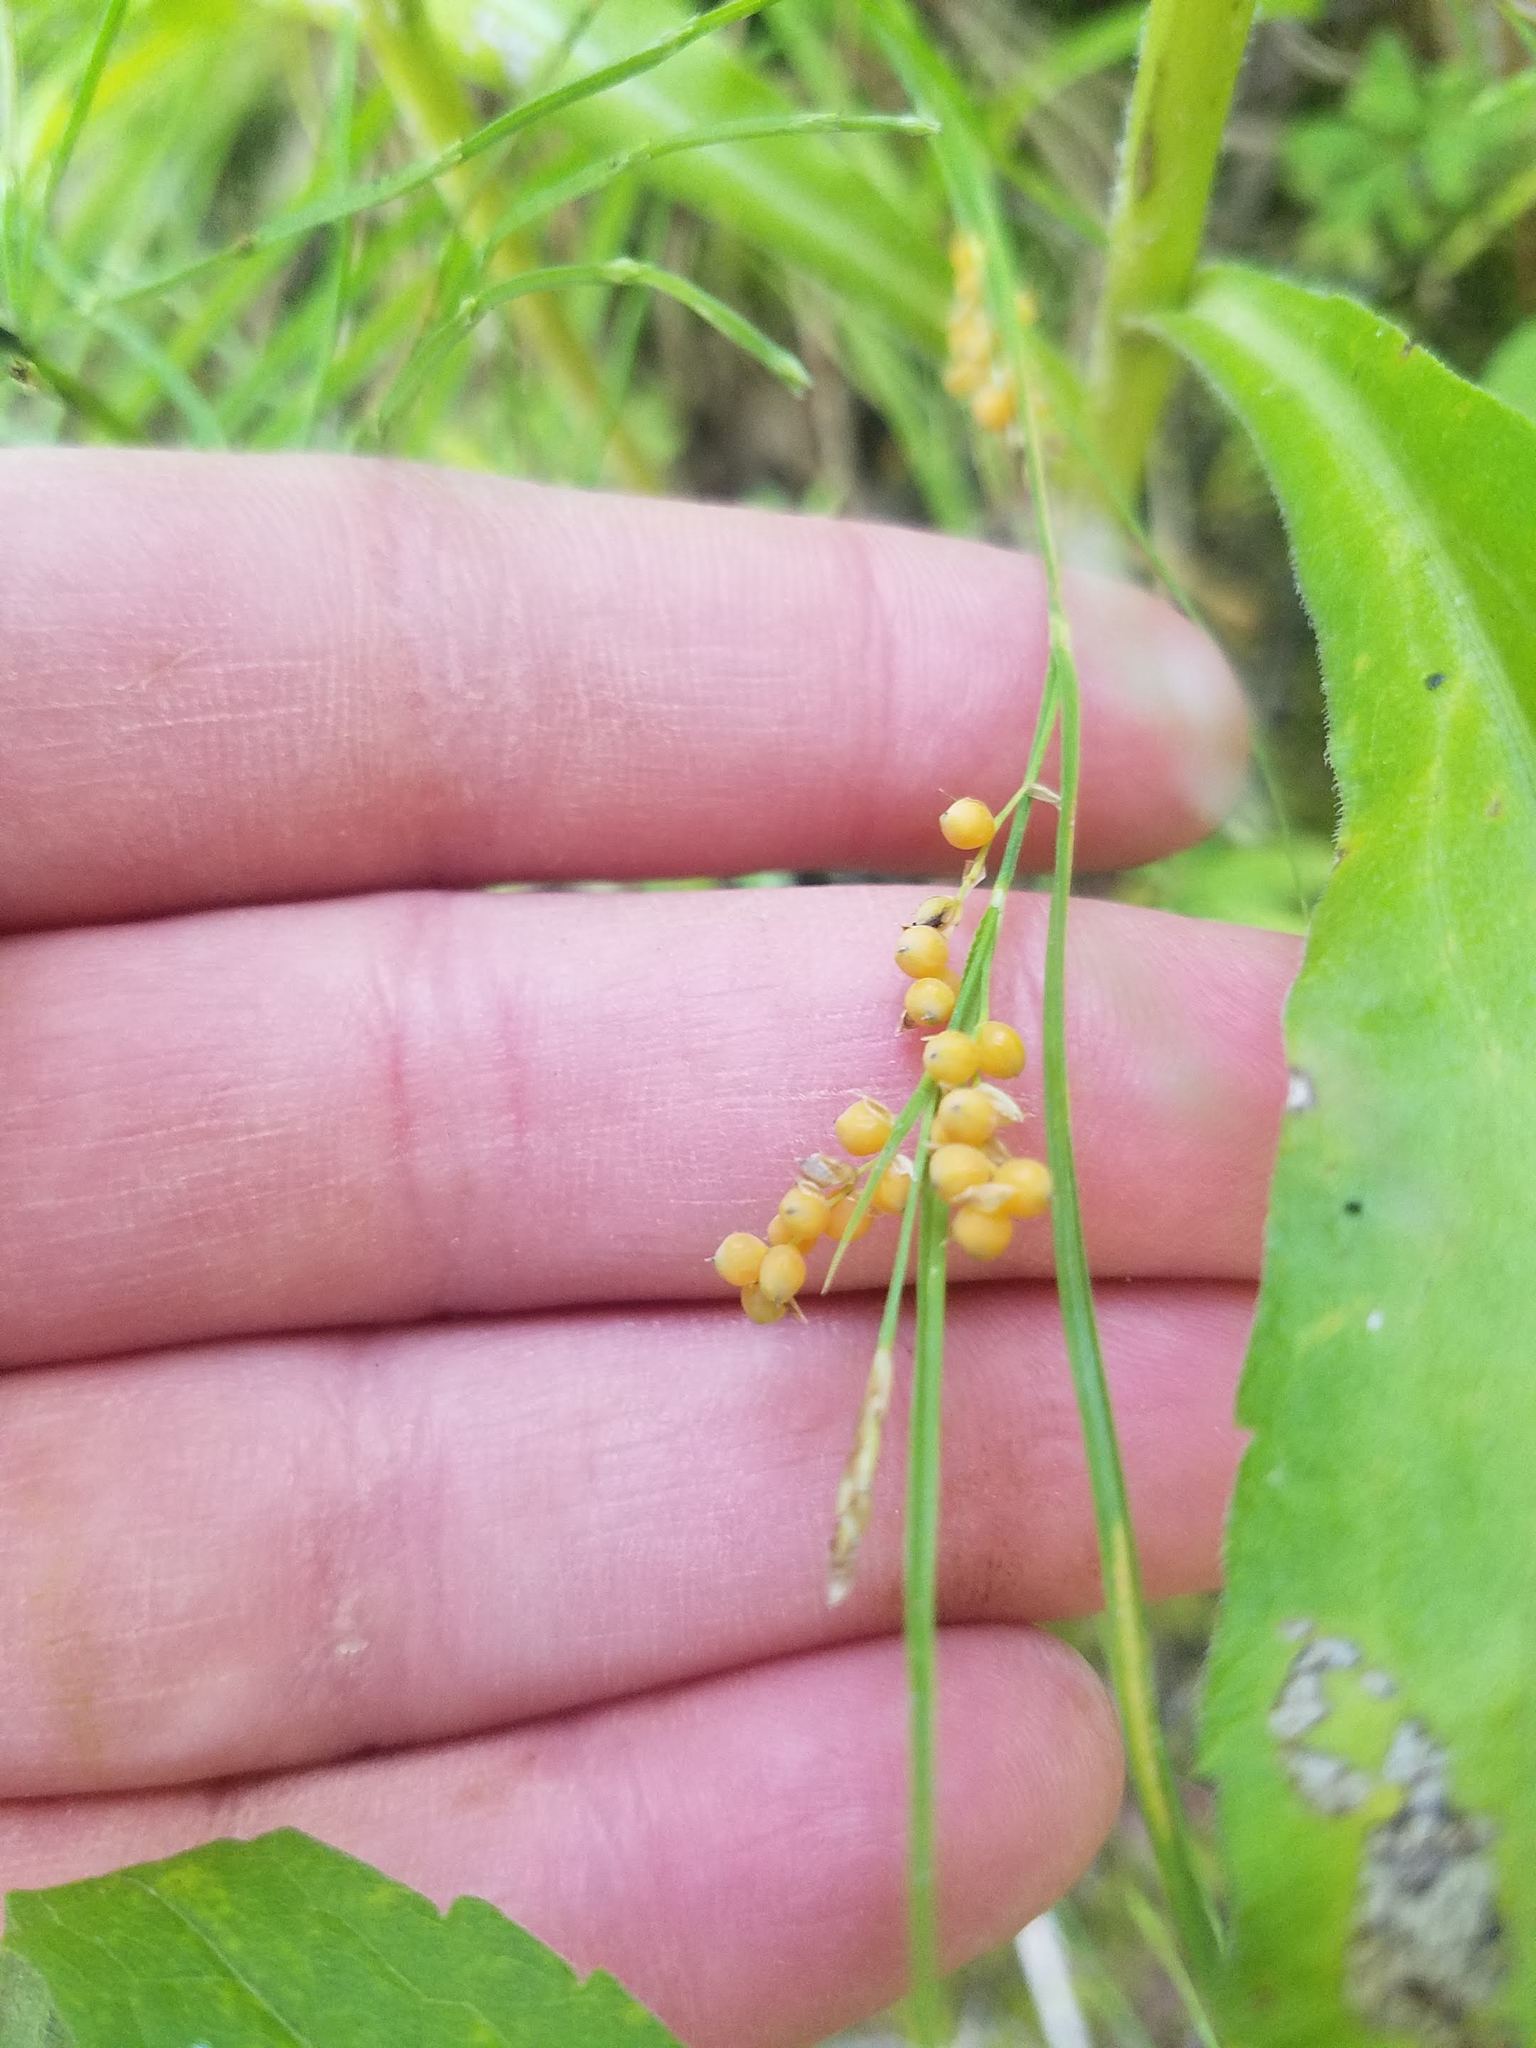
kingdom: Plantae
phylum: Tracheophyta
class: Liliopsida
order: Poales
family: Cyperaceae
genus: Carex
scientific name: Carex aurea
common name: Golden sedge
